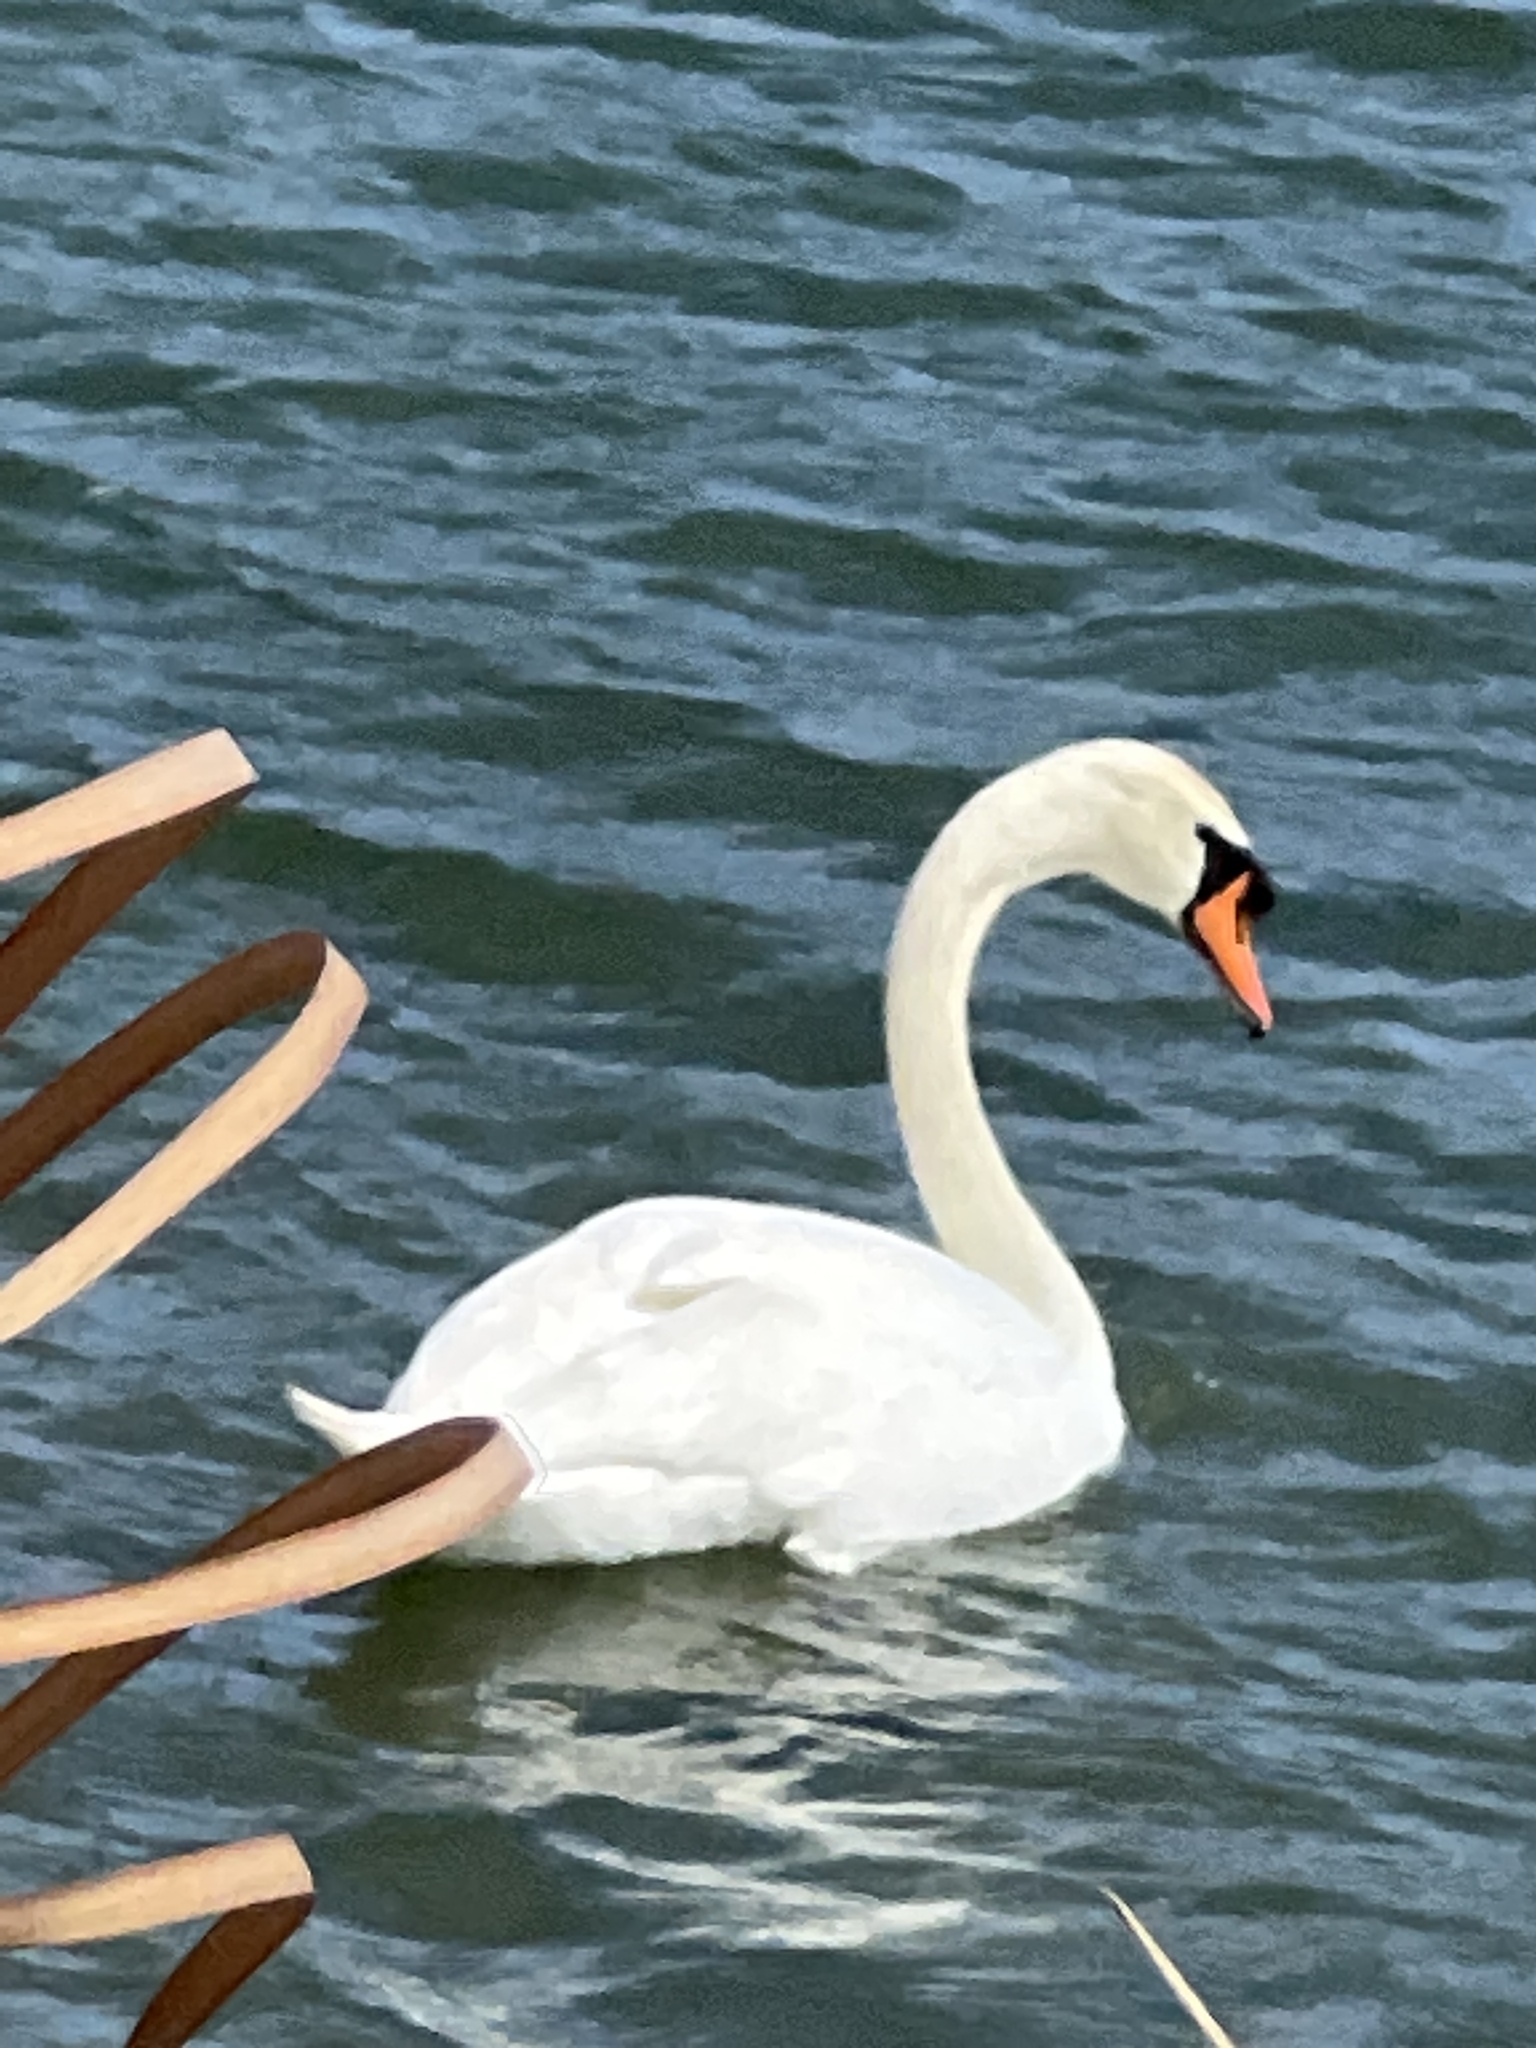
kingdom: Animalia
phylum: Chordata
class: Aves
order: Anseriformes
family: Anatidae
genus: Cygnus
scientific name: Cygnus olor
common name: Mute swan
